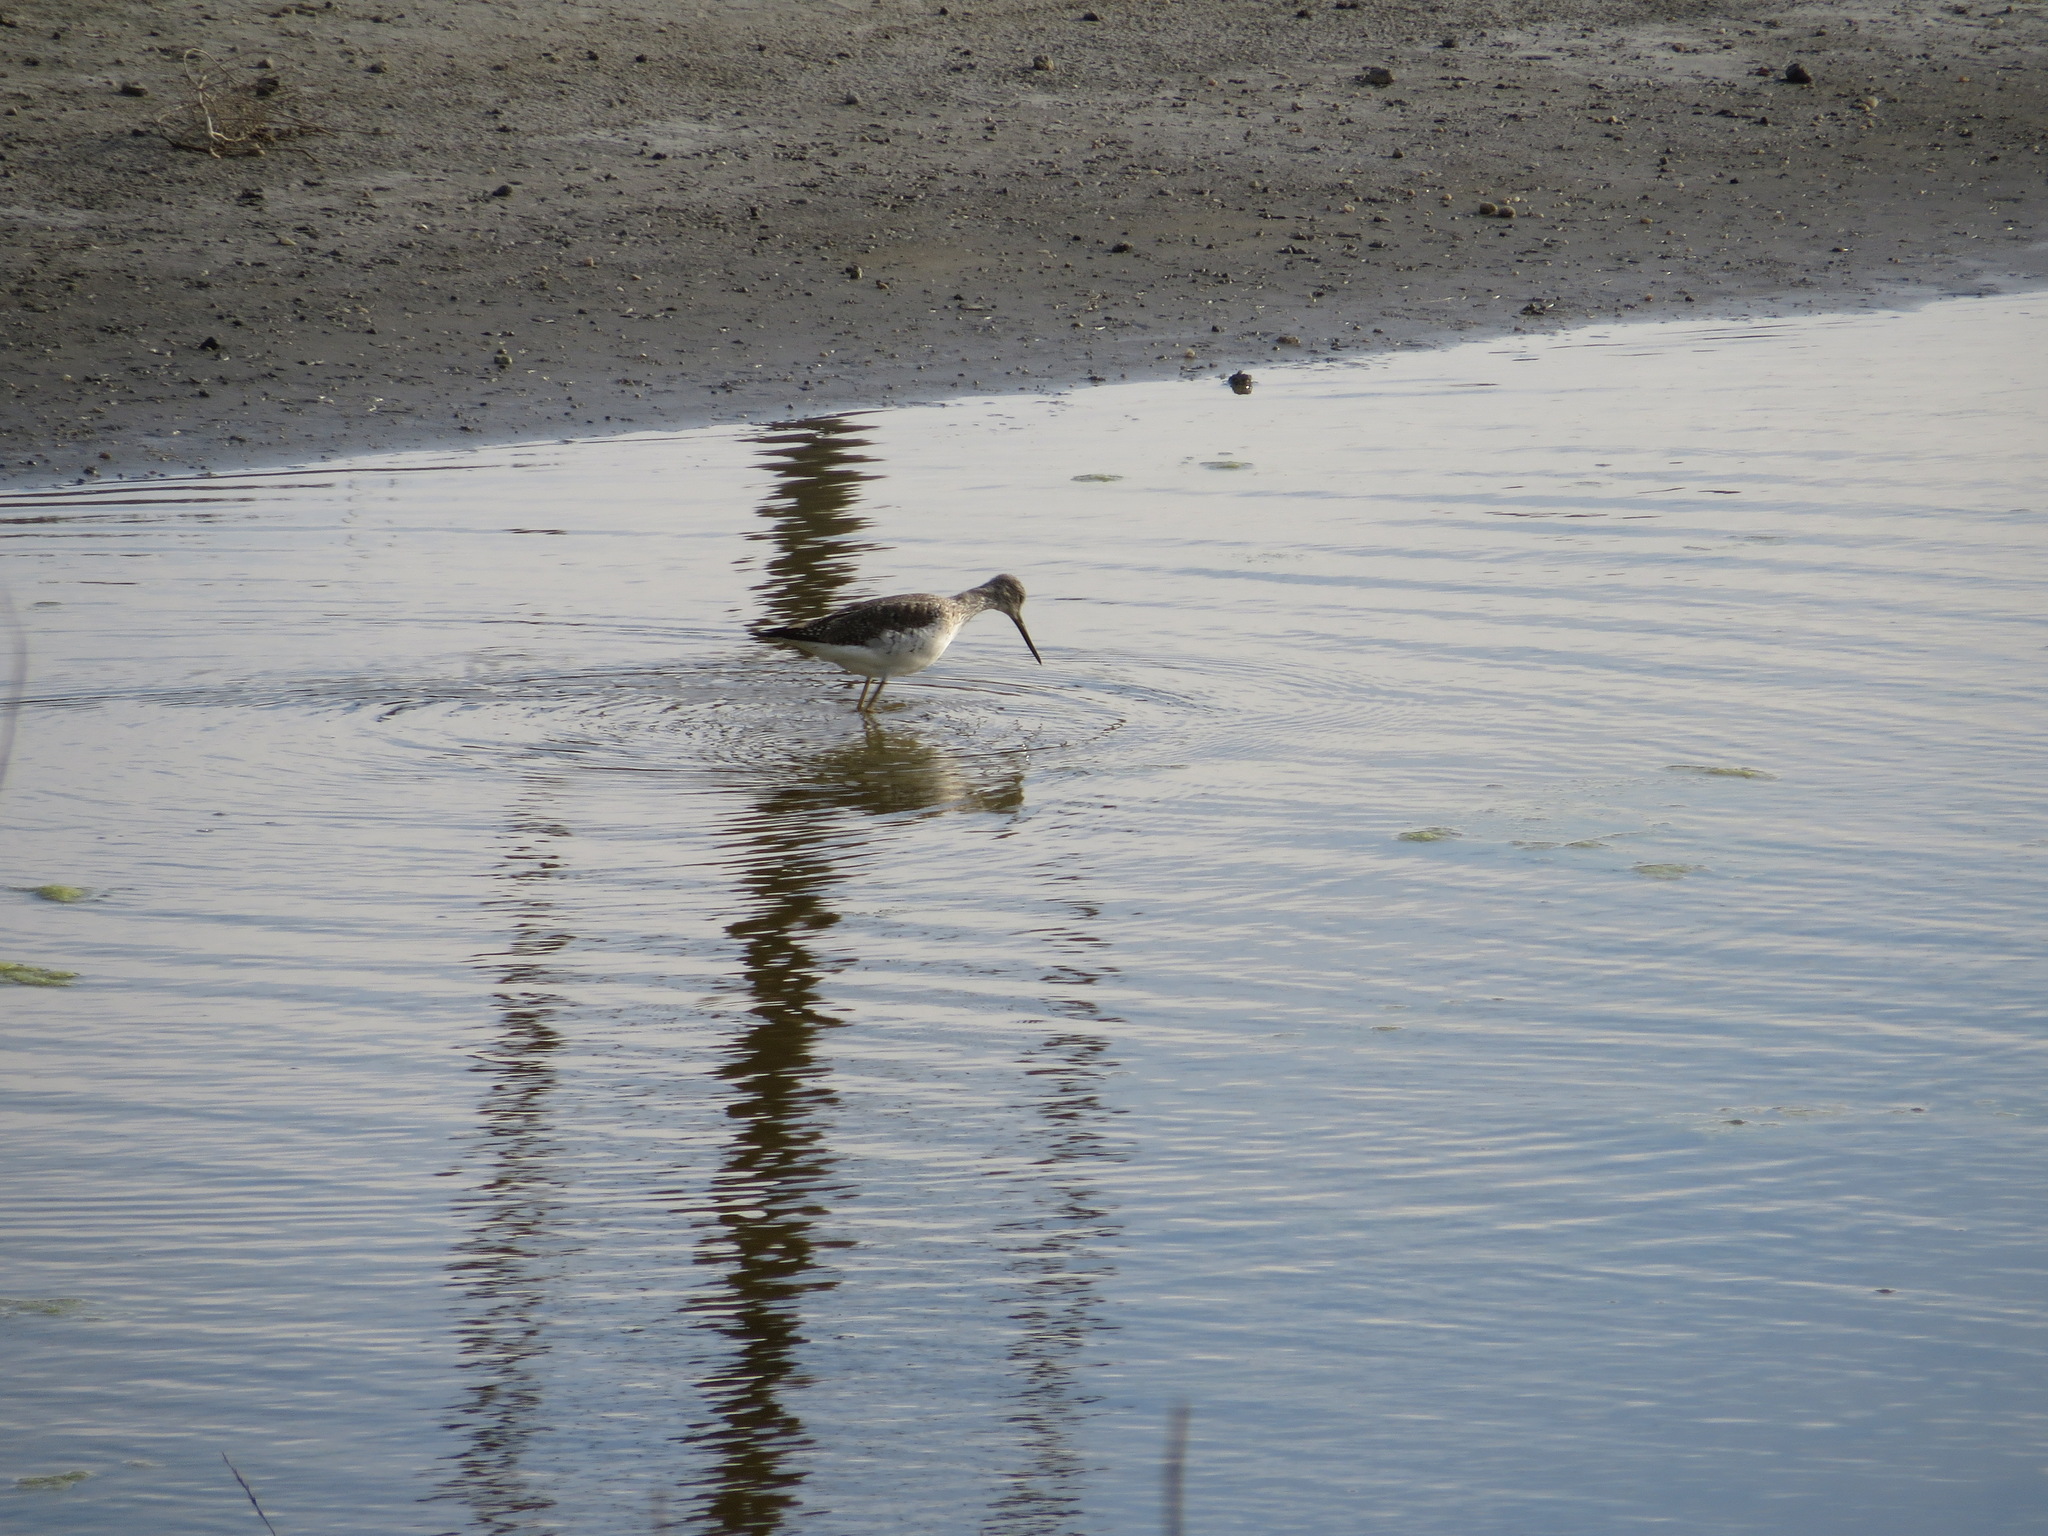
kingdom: Animalia
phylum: Chordata
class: Aves
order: Charadriiformes
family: Scolopacidae
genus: Tringa
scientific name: Tringa melanoleuca
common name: Greater yellowlegs
